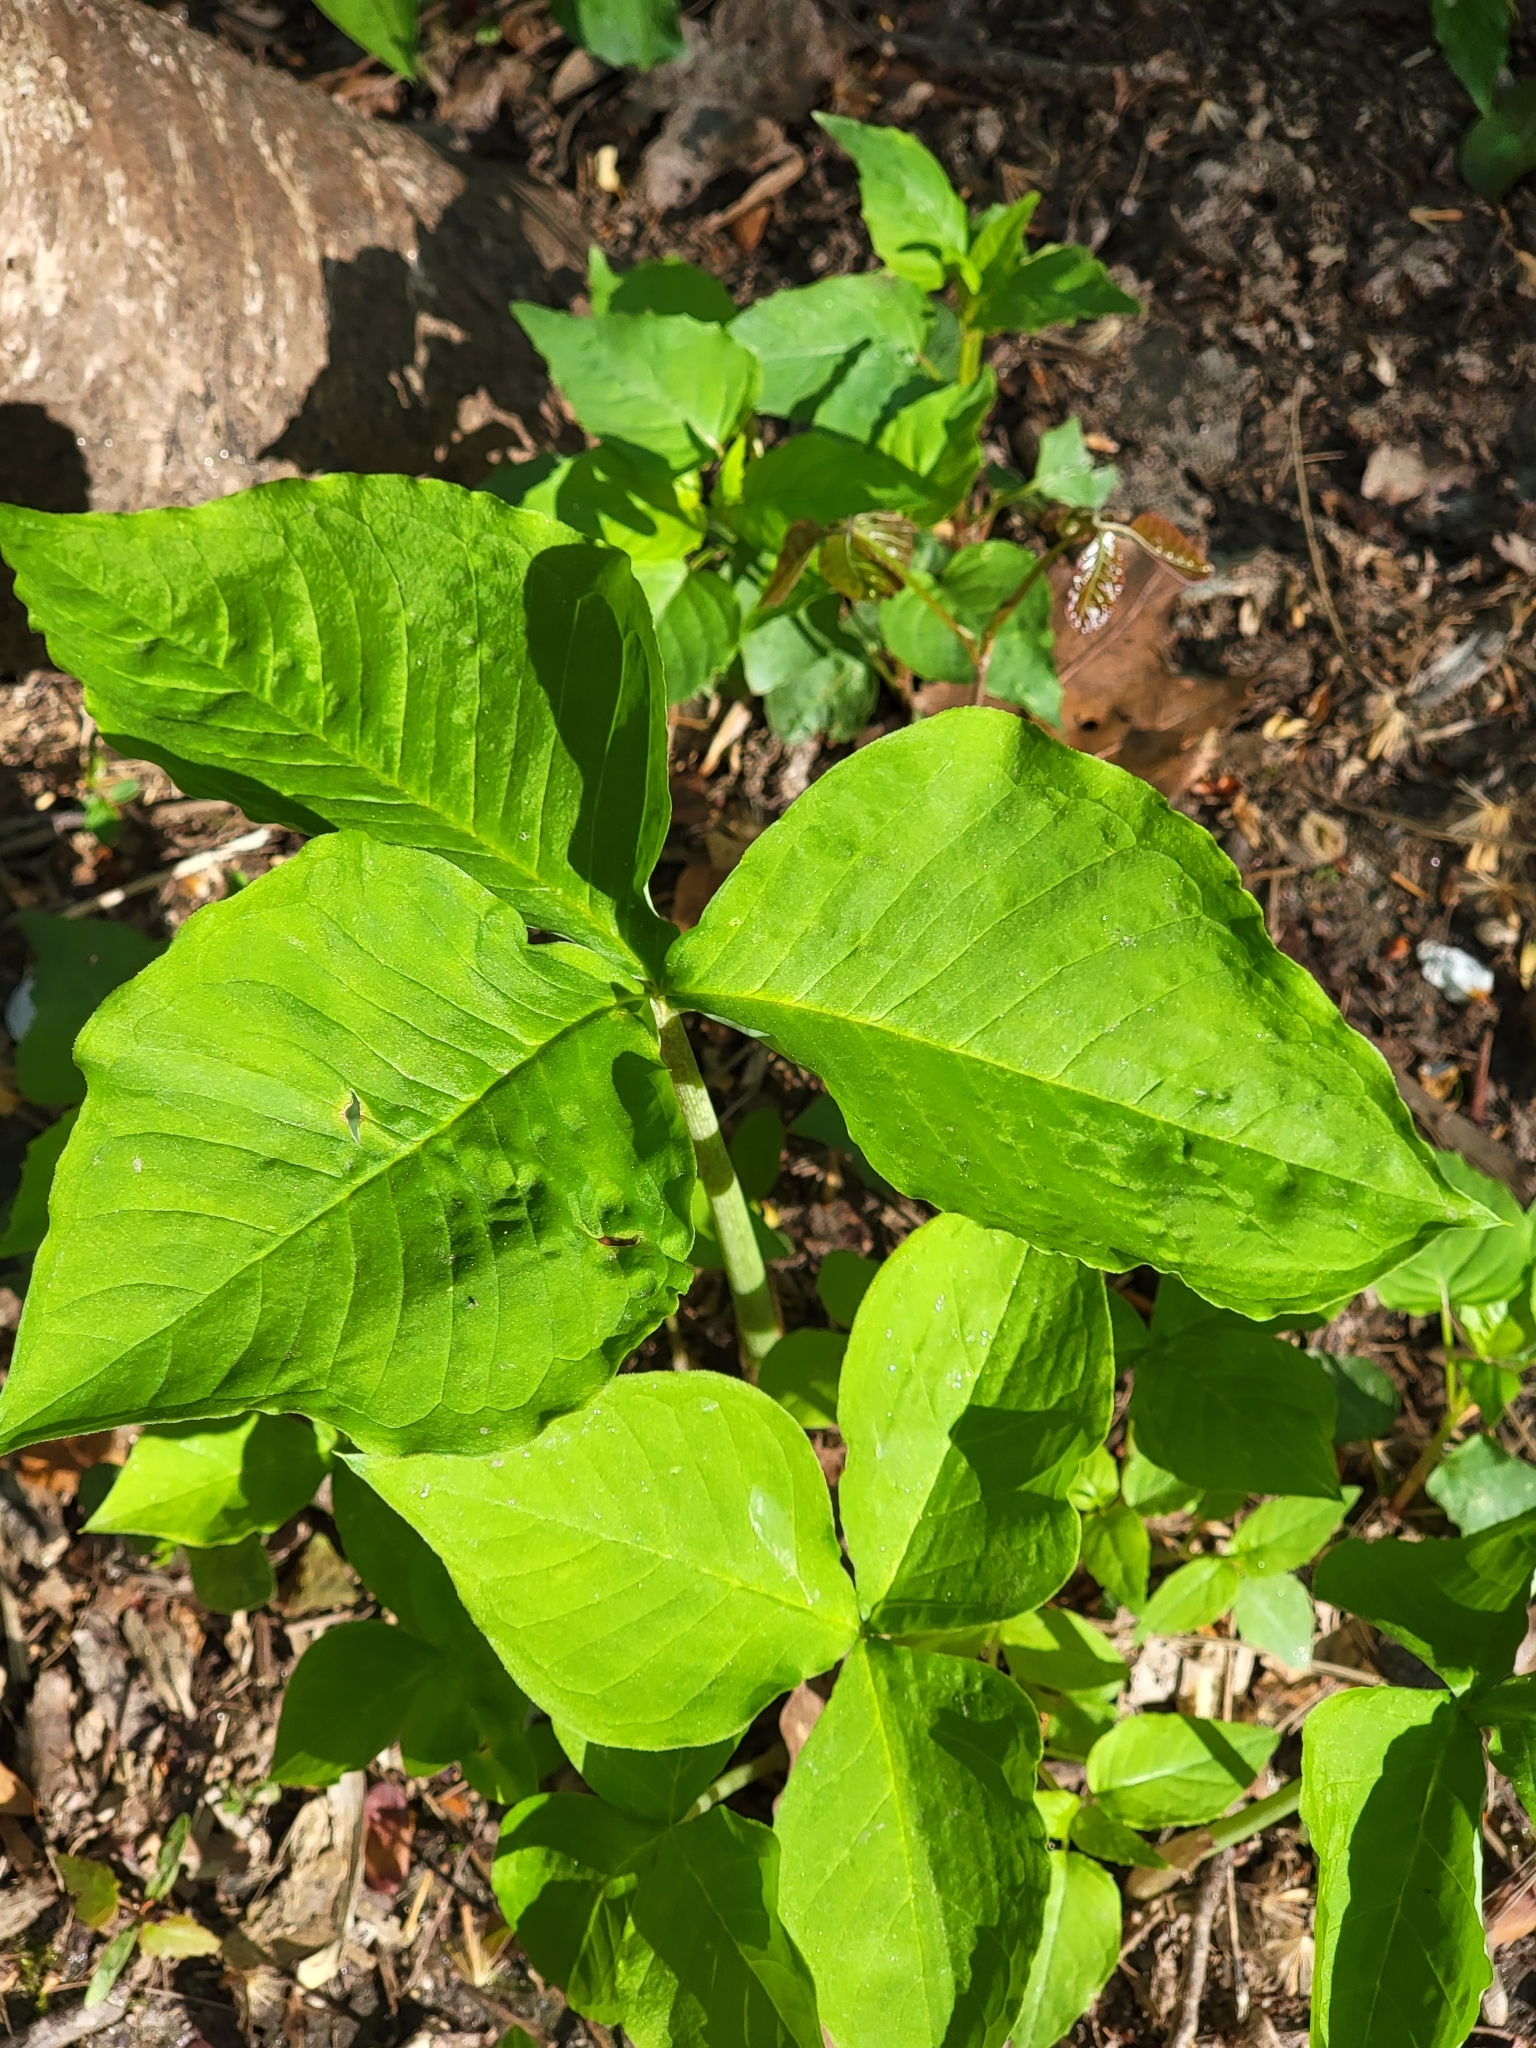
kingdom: Plantae
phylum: Tracheophyta
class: Liliopsida
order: Alismatales
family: Araceae
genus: Arisaema
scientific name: Arisaema triphyllum
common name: Jack-in-the-pulpit
